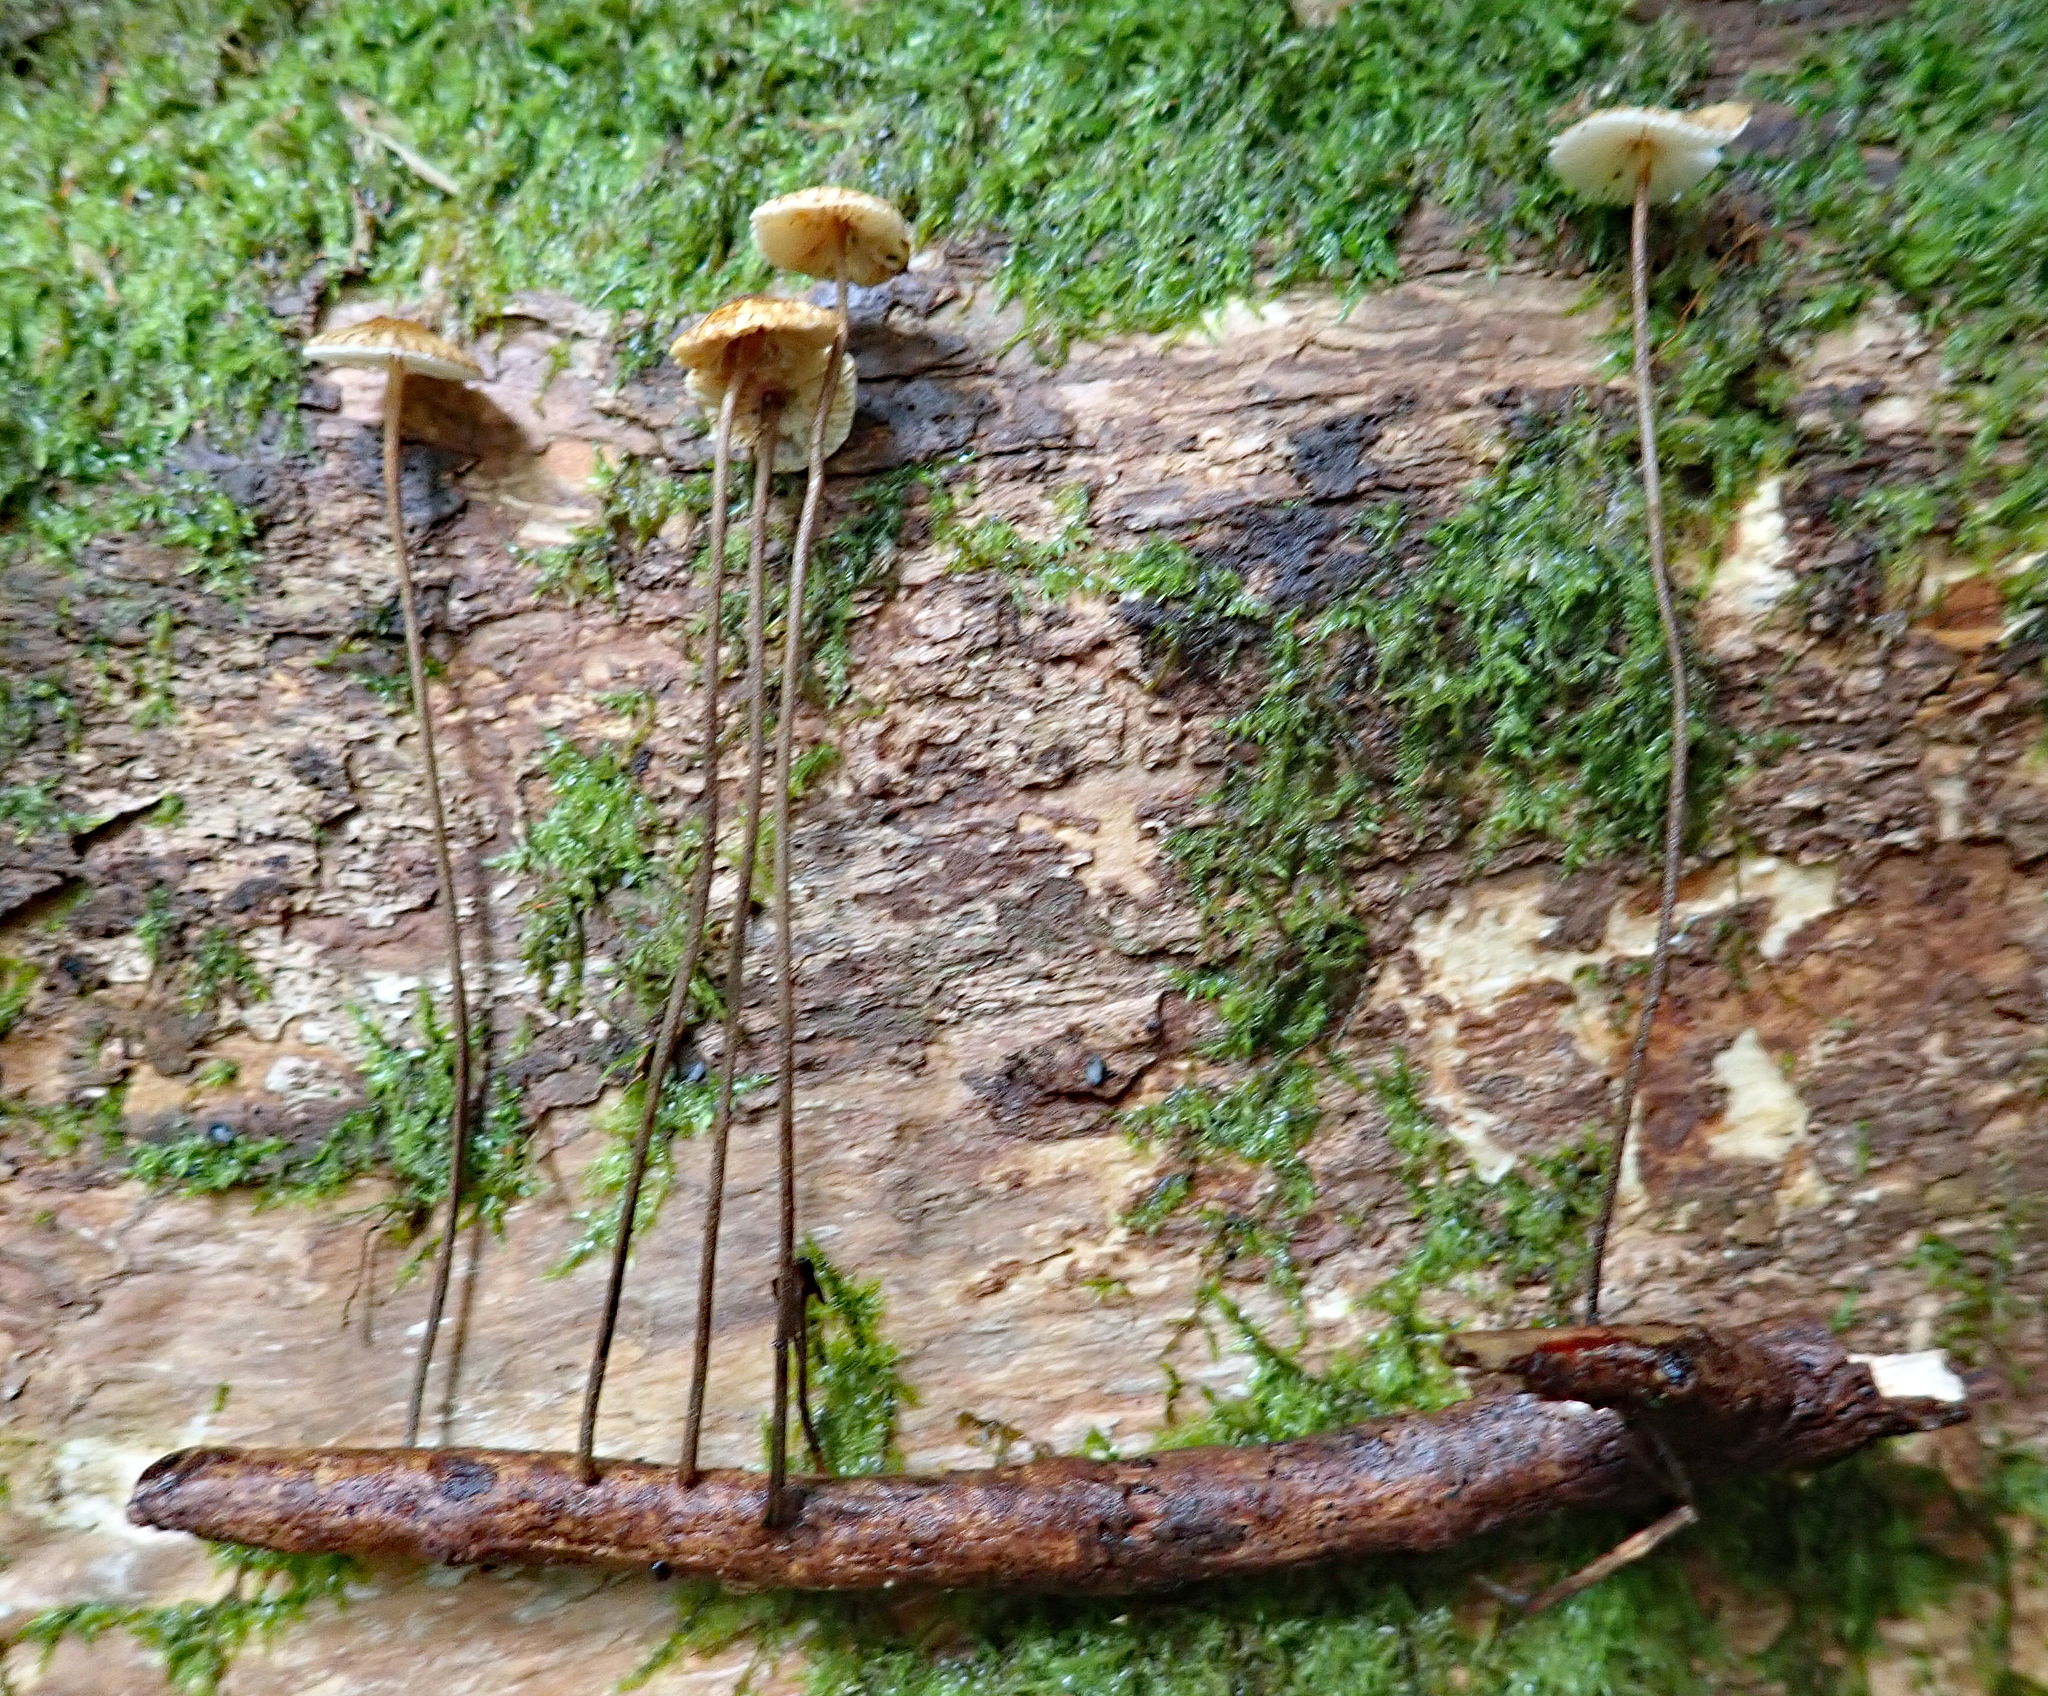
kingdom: Fungi
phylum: Basidiomycota
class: Agaricomycetes
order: Agaricales
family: Marasmiaceae
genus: Crinipellis
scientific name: Crinipellis procera
